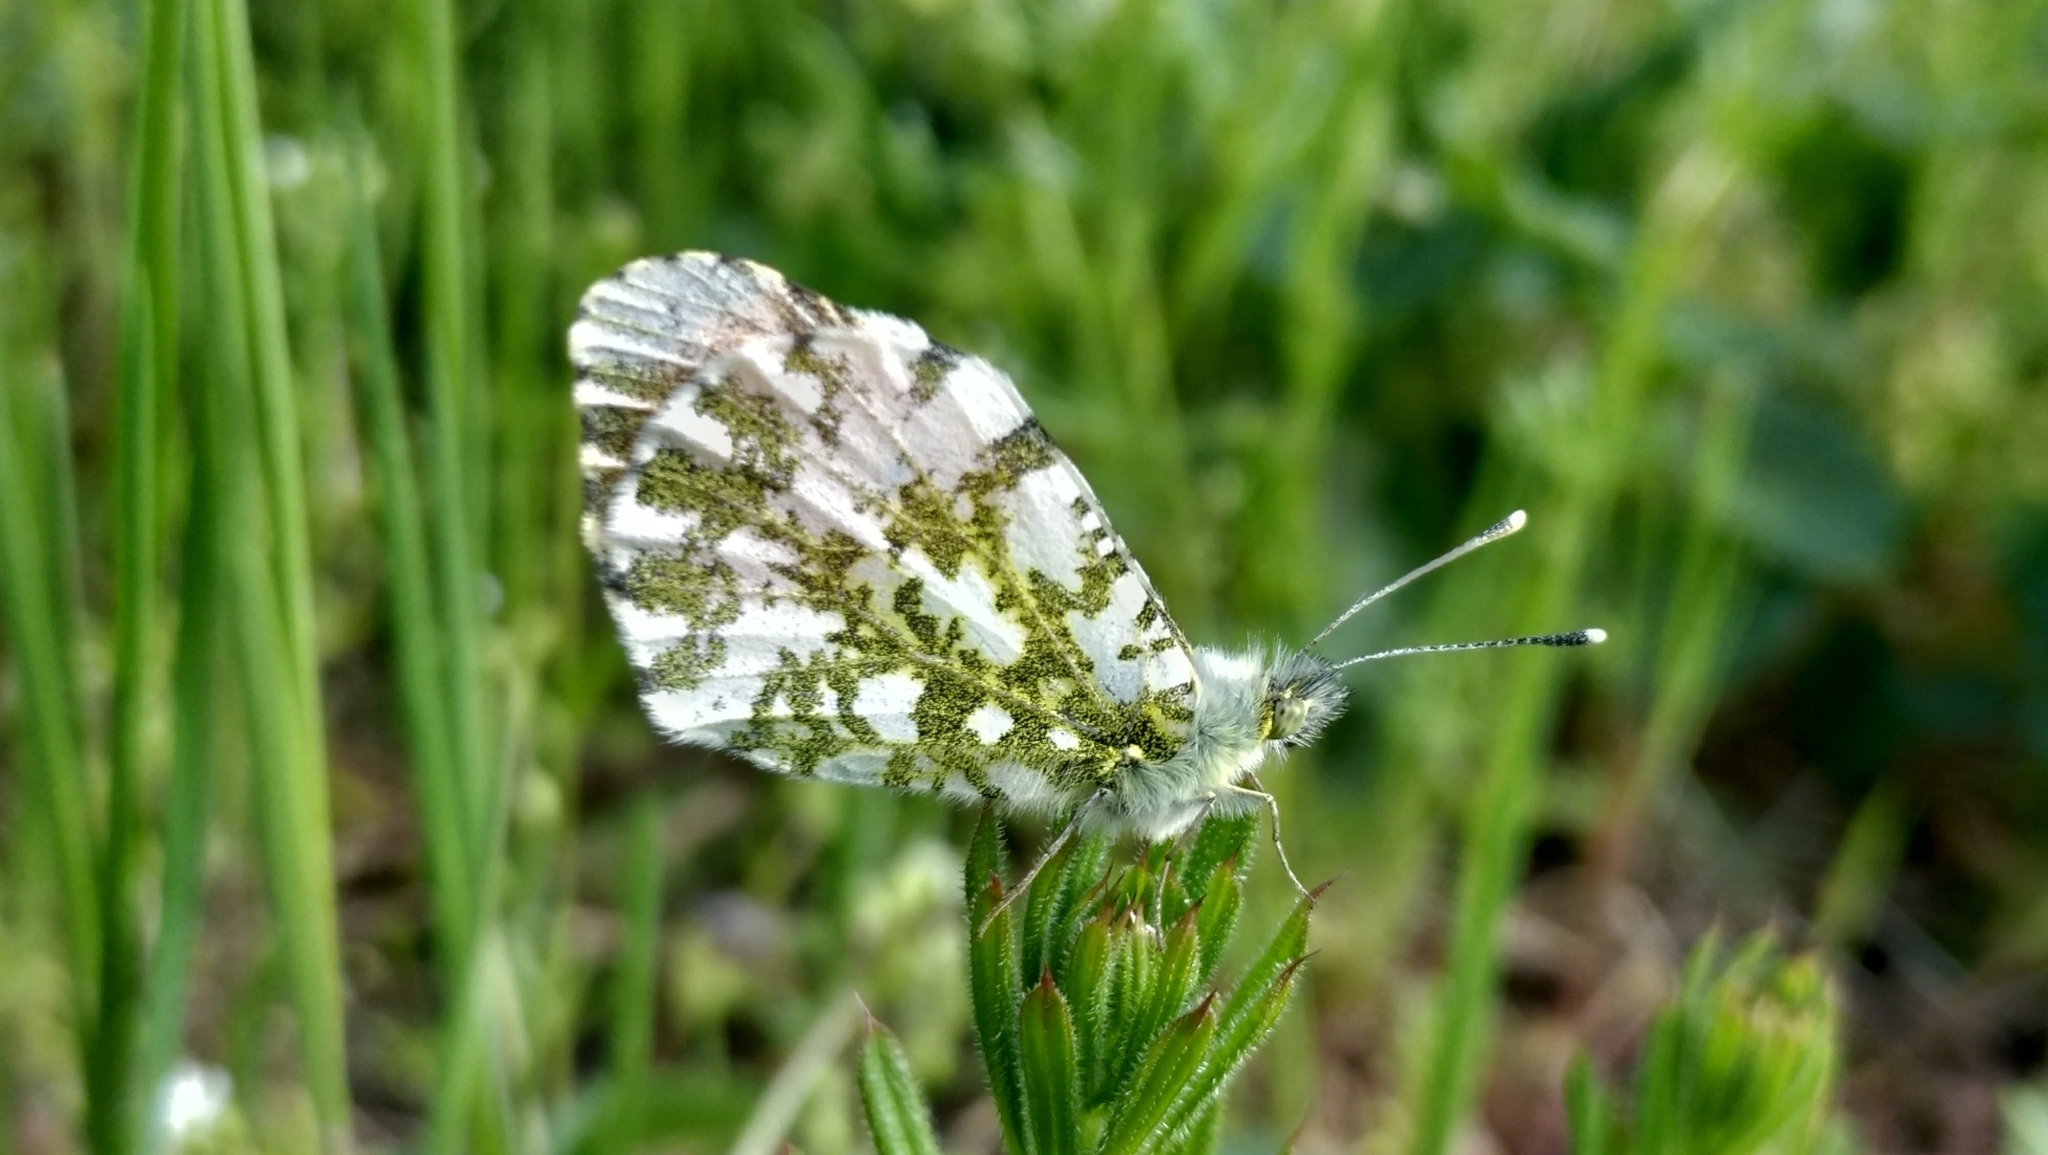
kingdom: Animalia
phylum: Arthropoda
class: Insecta
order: Lepidoptera
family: Pieridae
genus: Anthocharis
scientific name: Anthocharis cardamines
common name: Orange-tip
